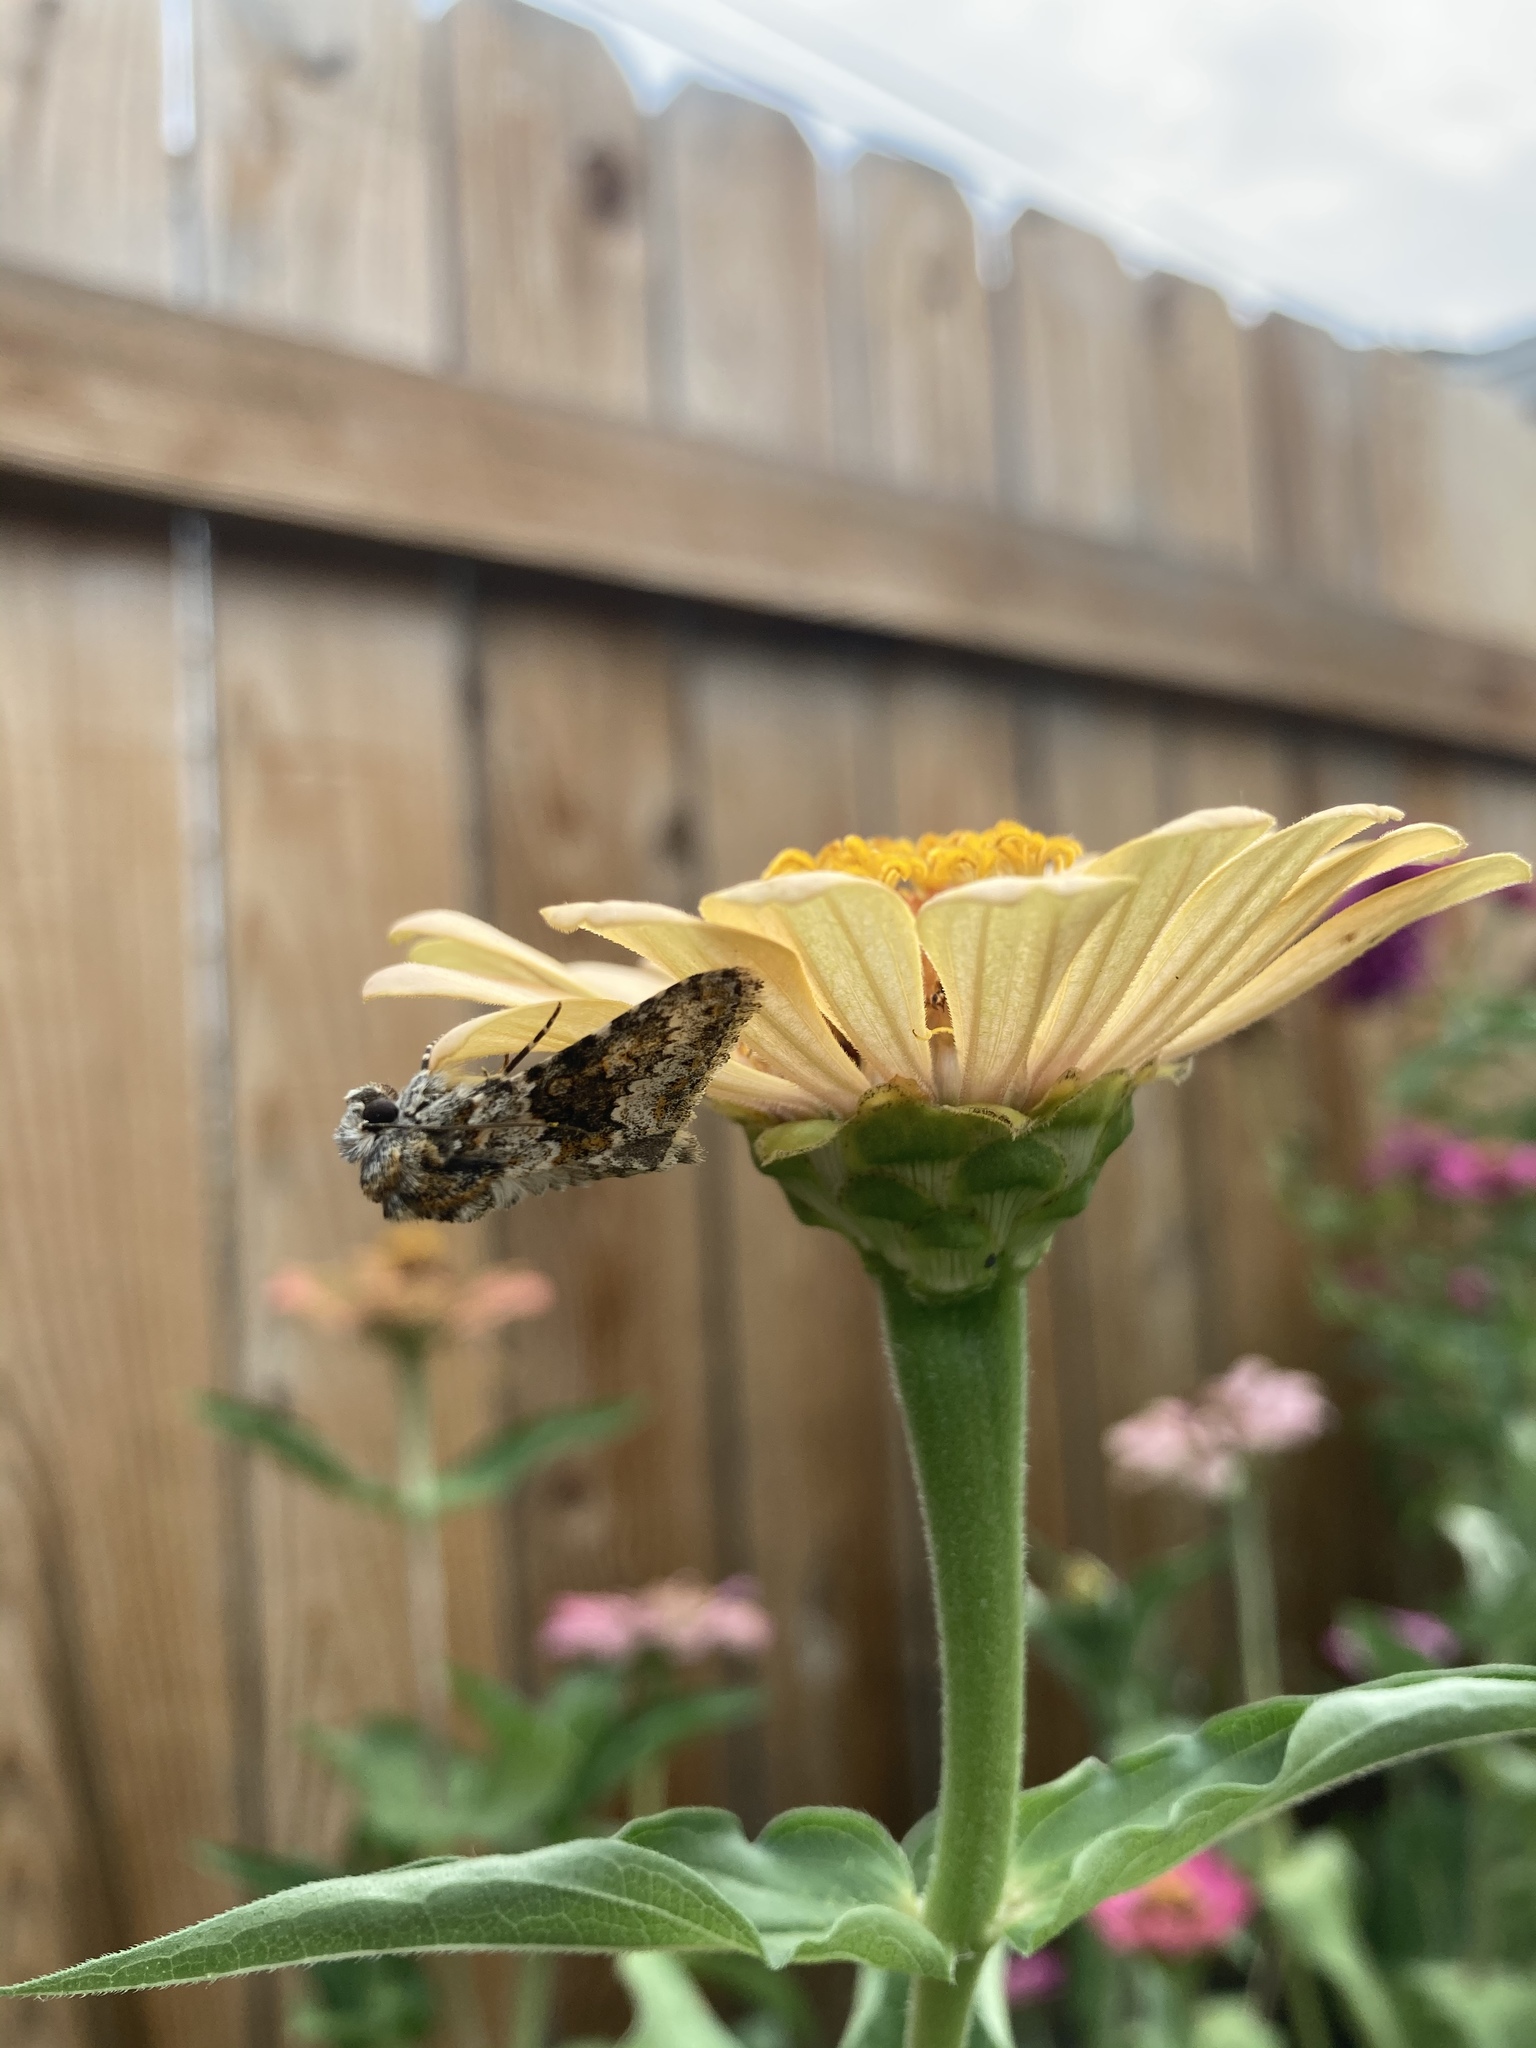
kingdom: Animalia
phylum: Arthropoda
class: Insecta
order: Lepidoptera
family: Noctuidae
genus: Hecatera
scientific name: Hecatera dysodea
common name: Small ranunculus
